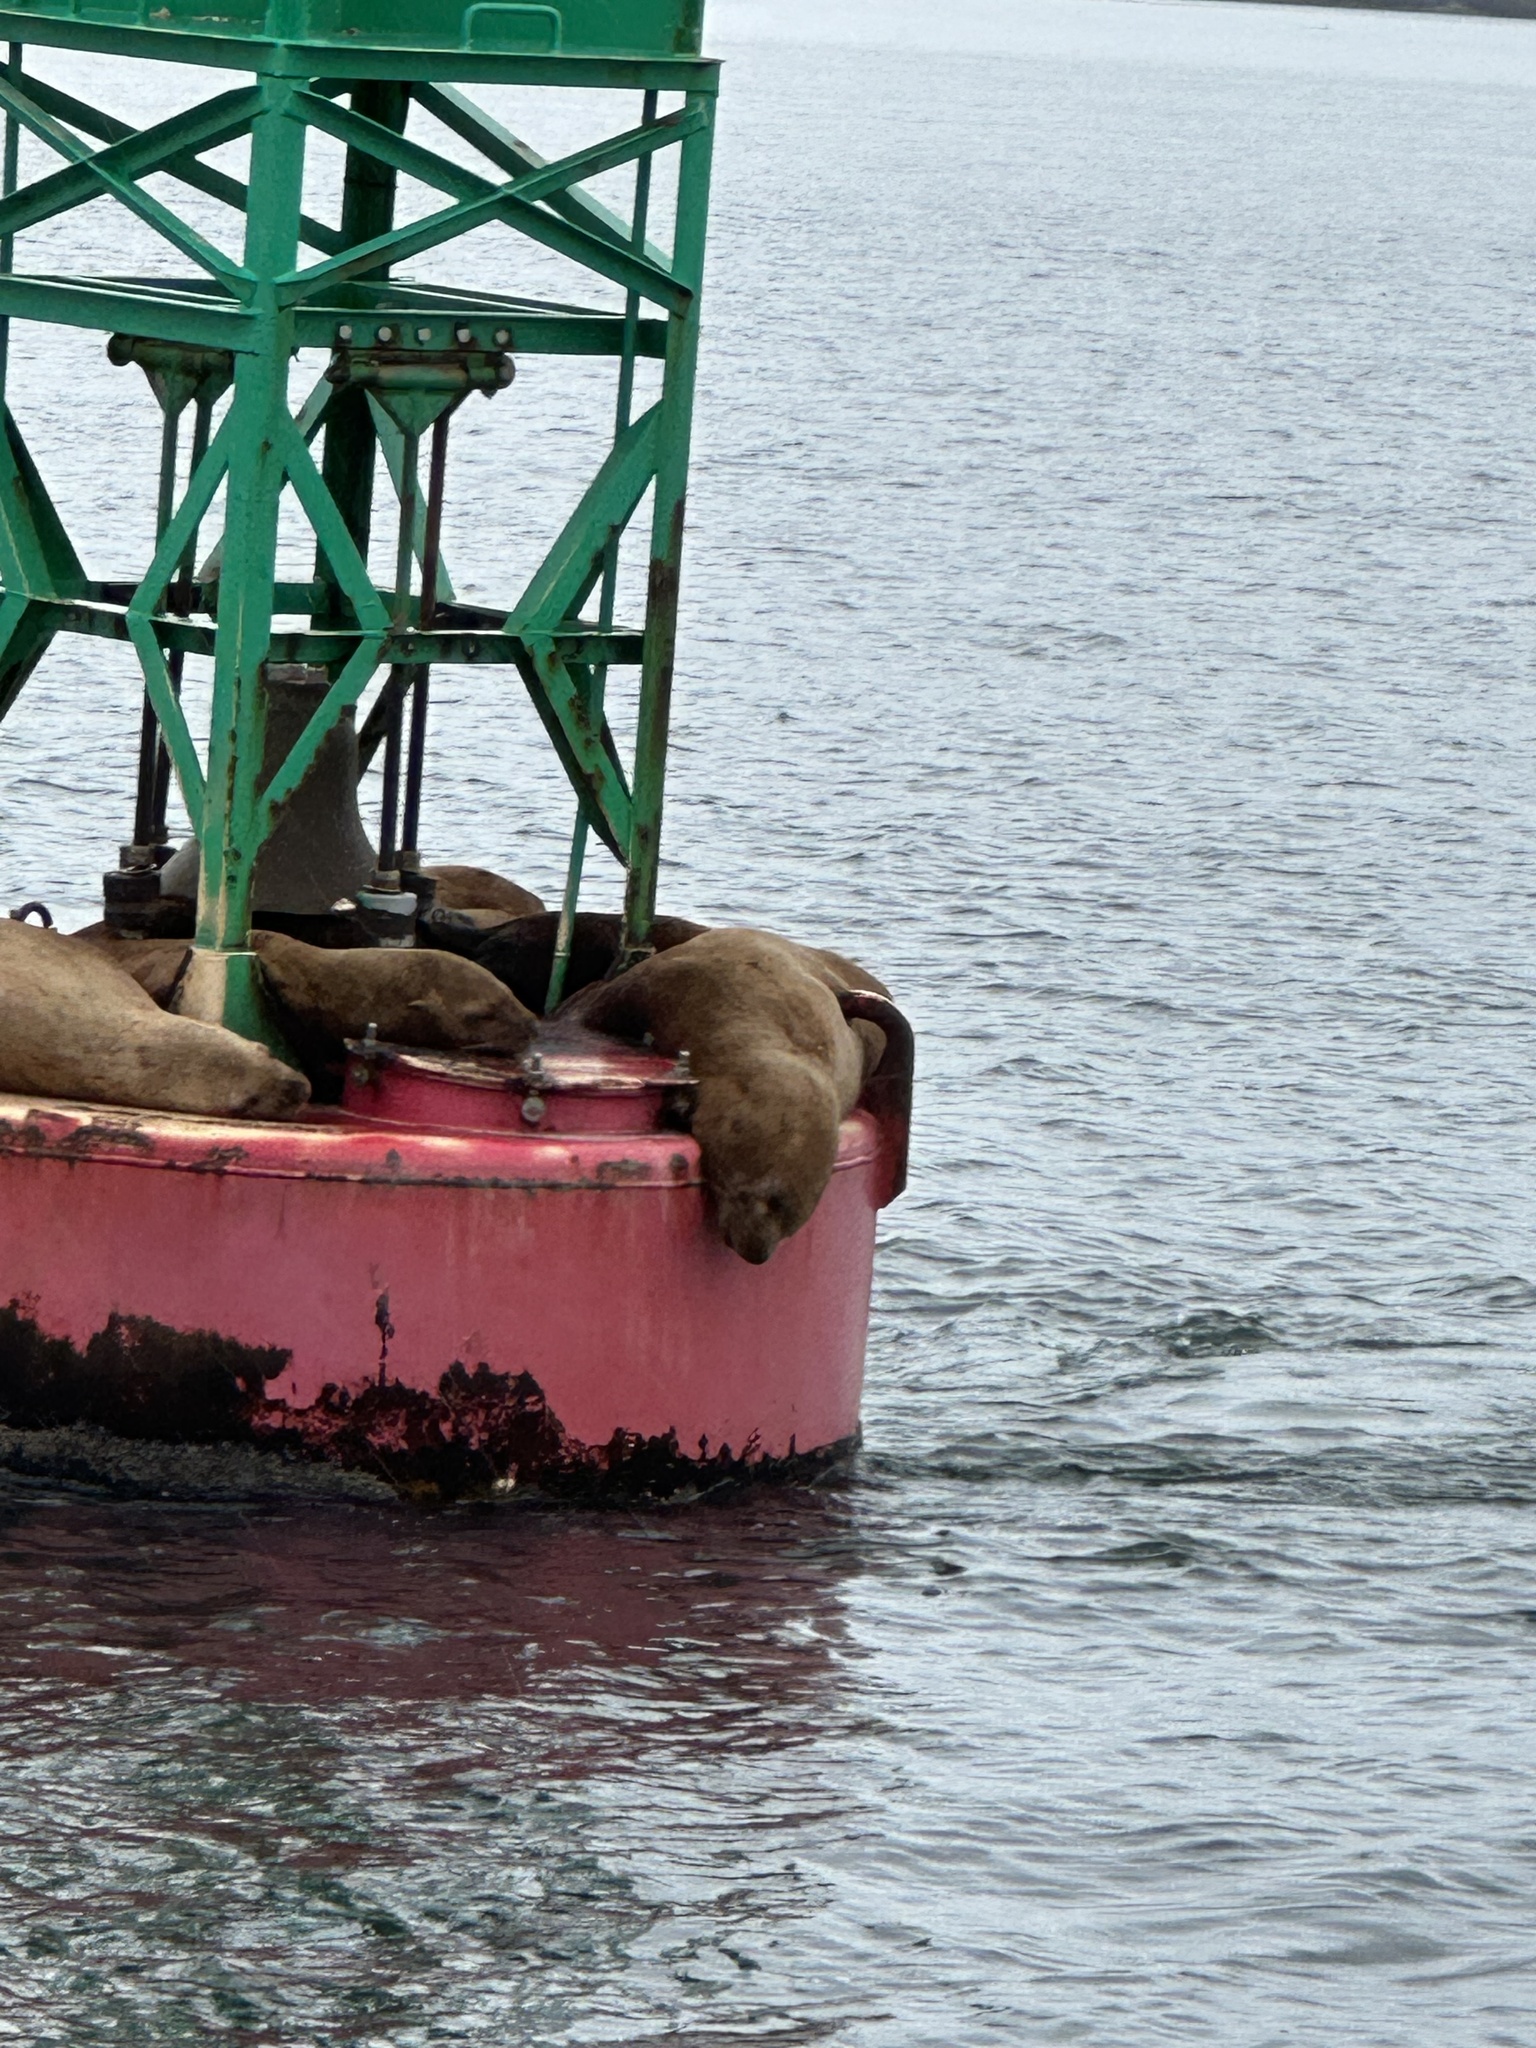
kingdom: Animalia
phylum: Chordata
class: Mammalia
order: Carnivora
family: Otariidae
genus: Eumetopias
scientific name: Eumetopias jubatus
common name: Steller sea lion
